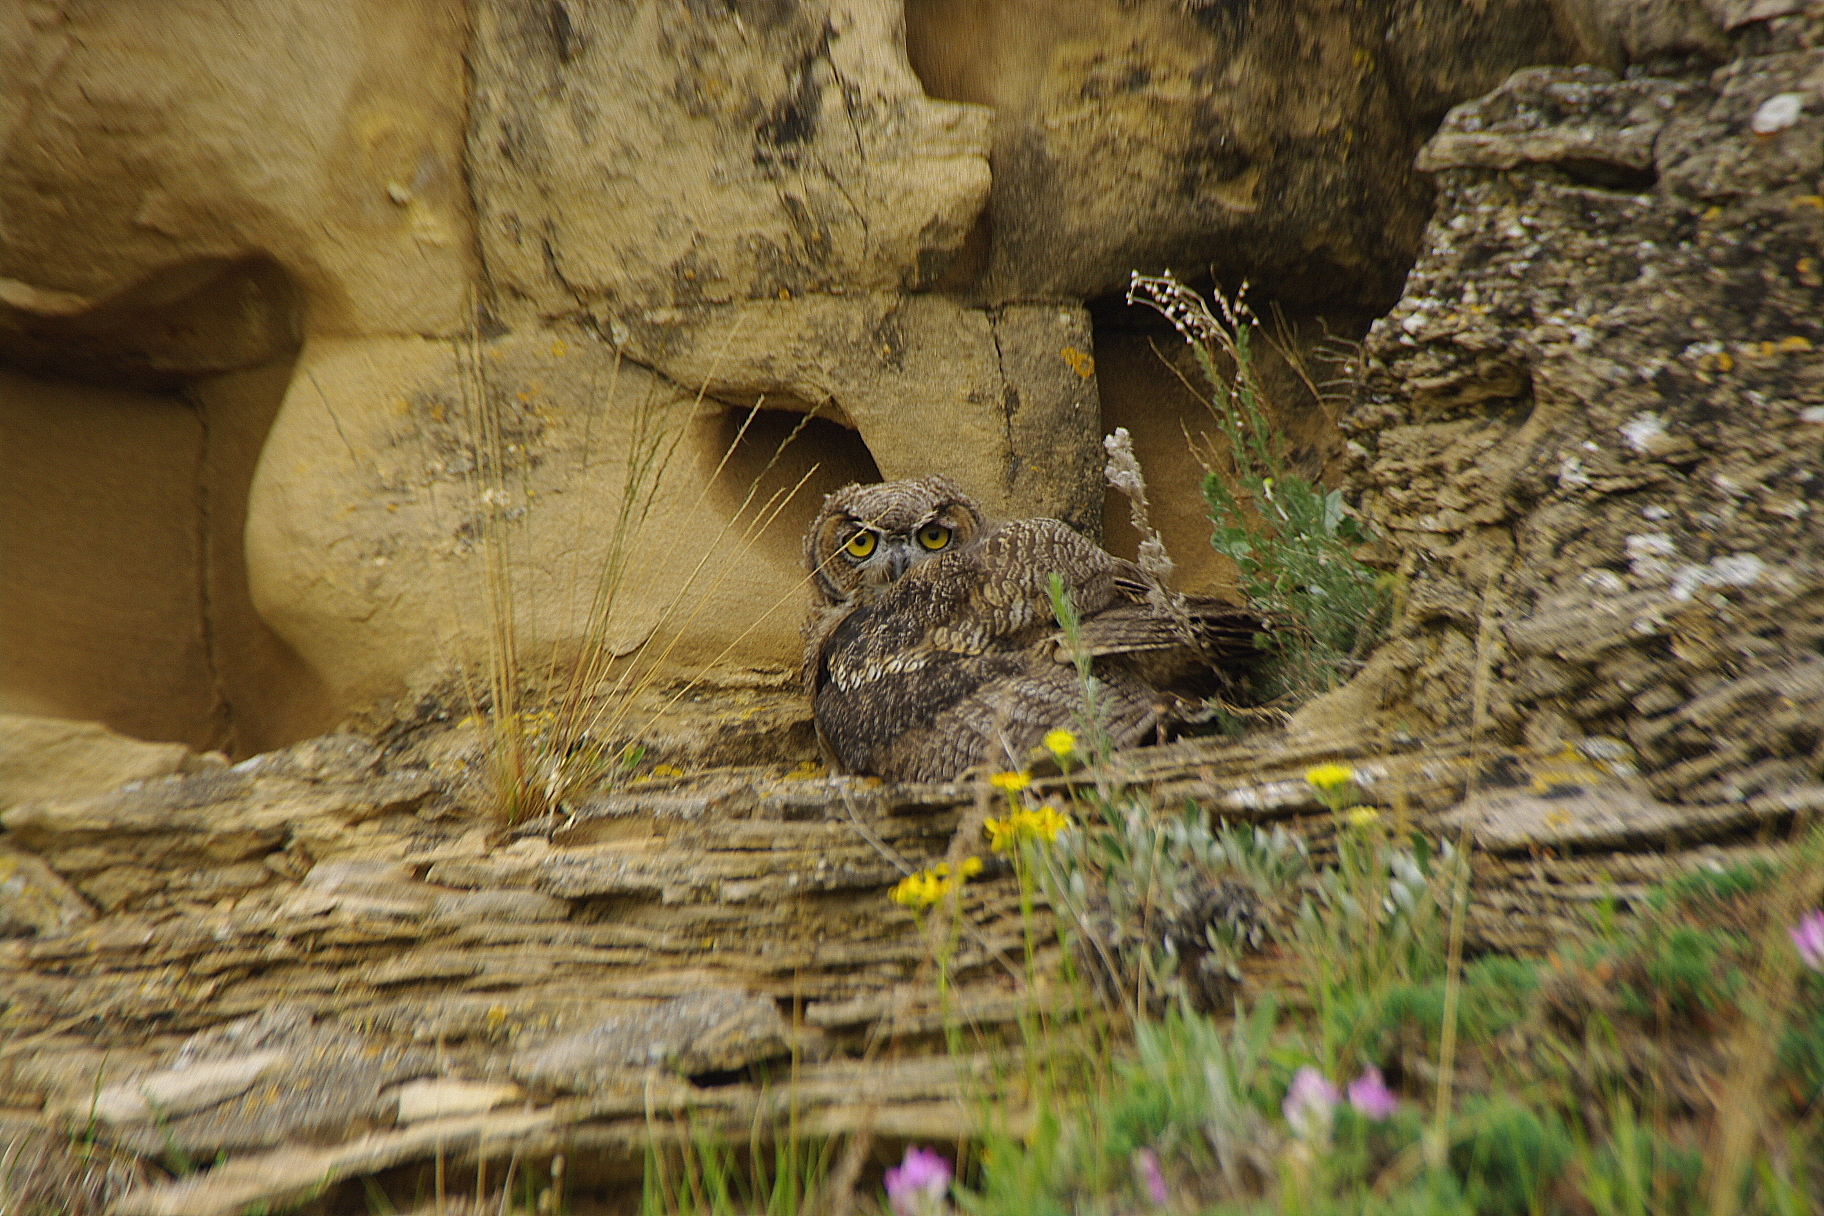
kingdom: Animalia
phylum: Chordata
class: Aves
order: Strigiformes
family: Strigidae
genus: Bubo
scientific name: Bubo virginianus
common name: Great horned owl
